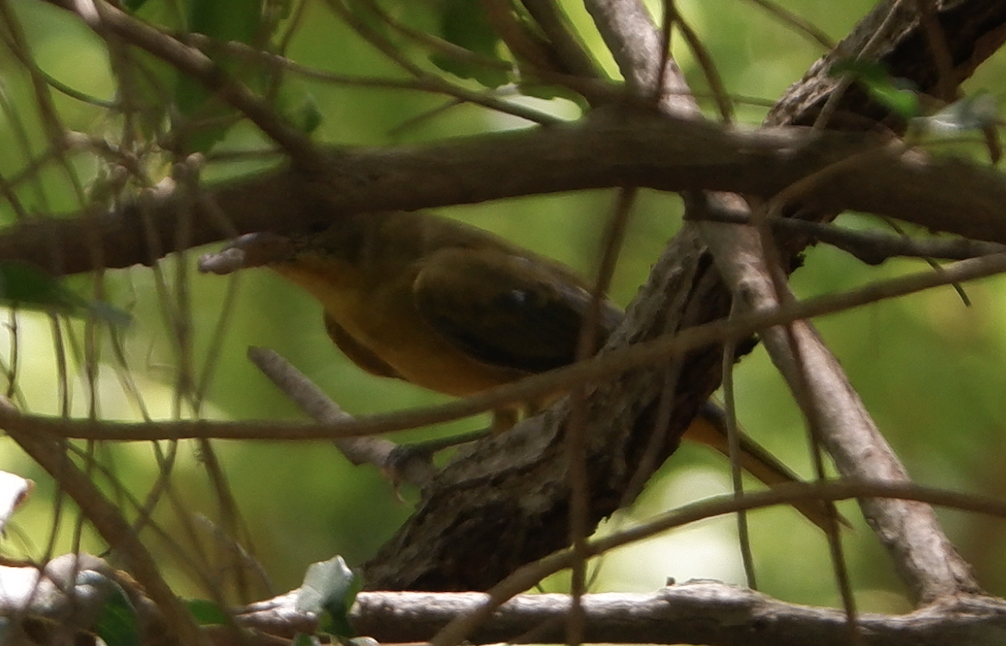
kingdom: Animalia
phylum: Chordata
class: Aves
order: Passeriformes
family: Cardinalidae
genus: Piranga
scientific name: Piranga rubra
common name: Summer tanager
